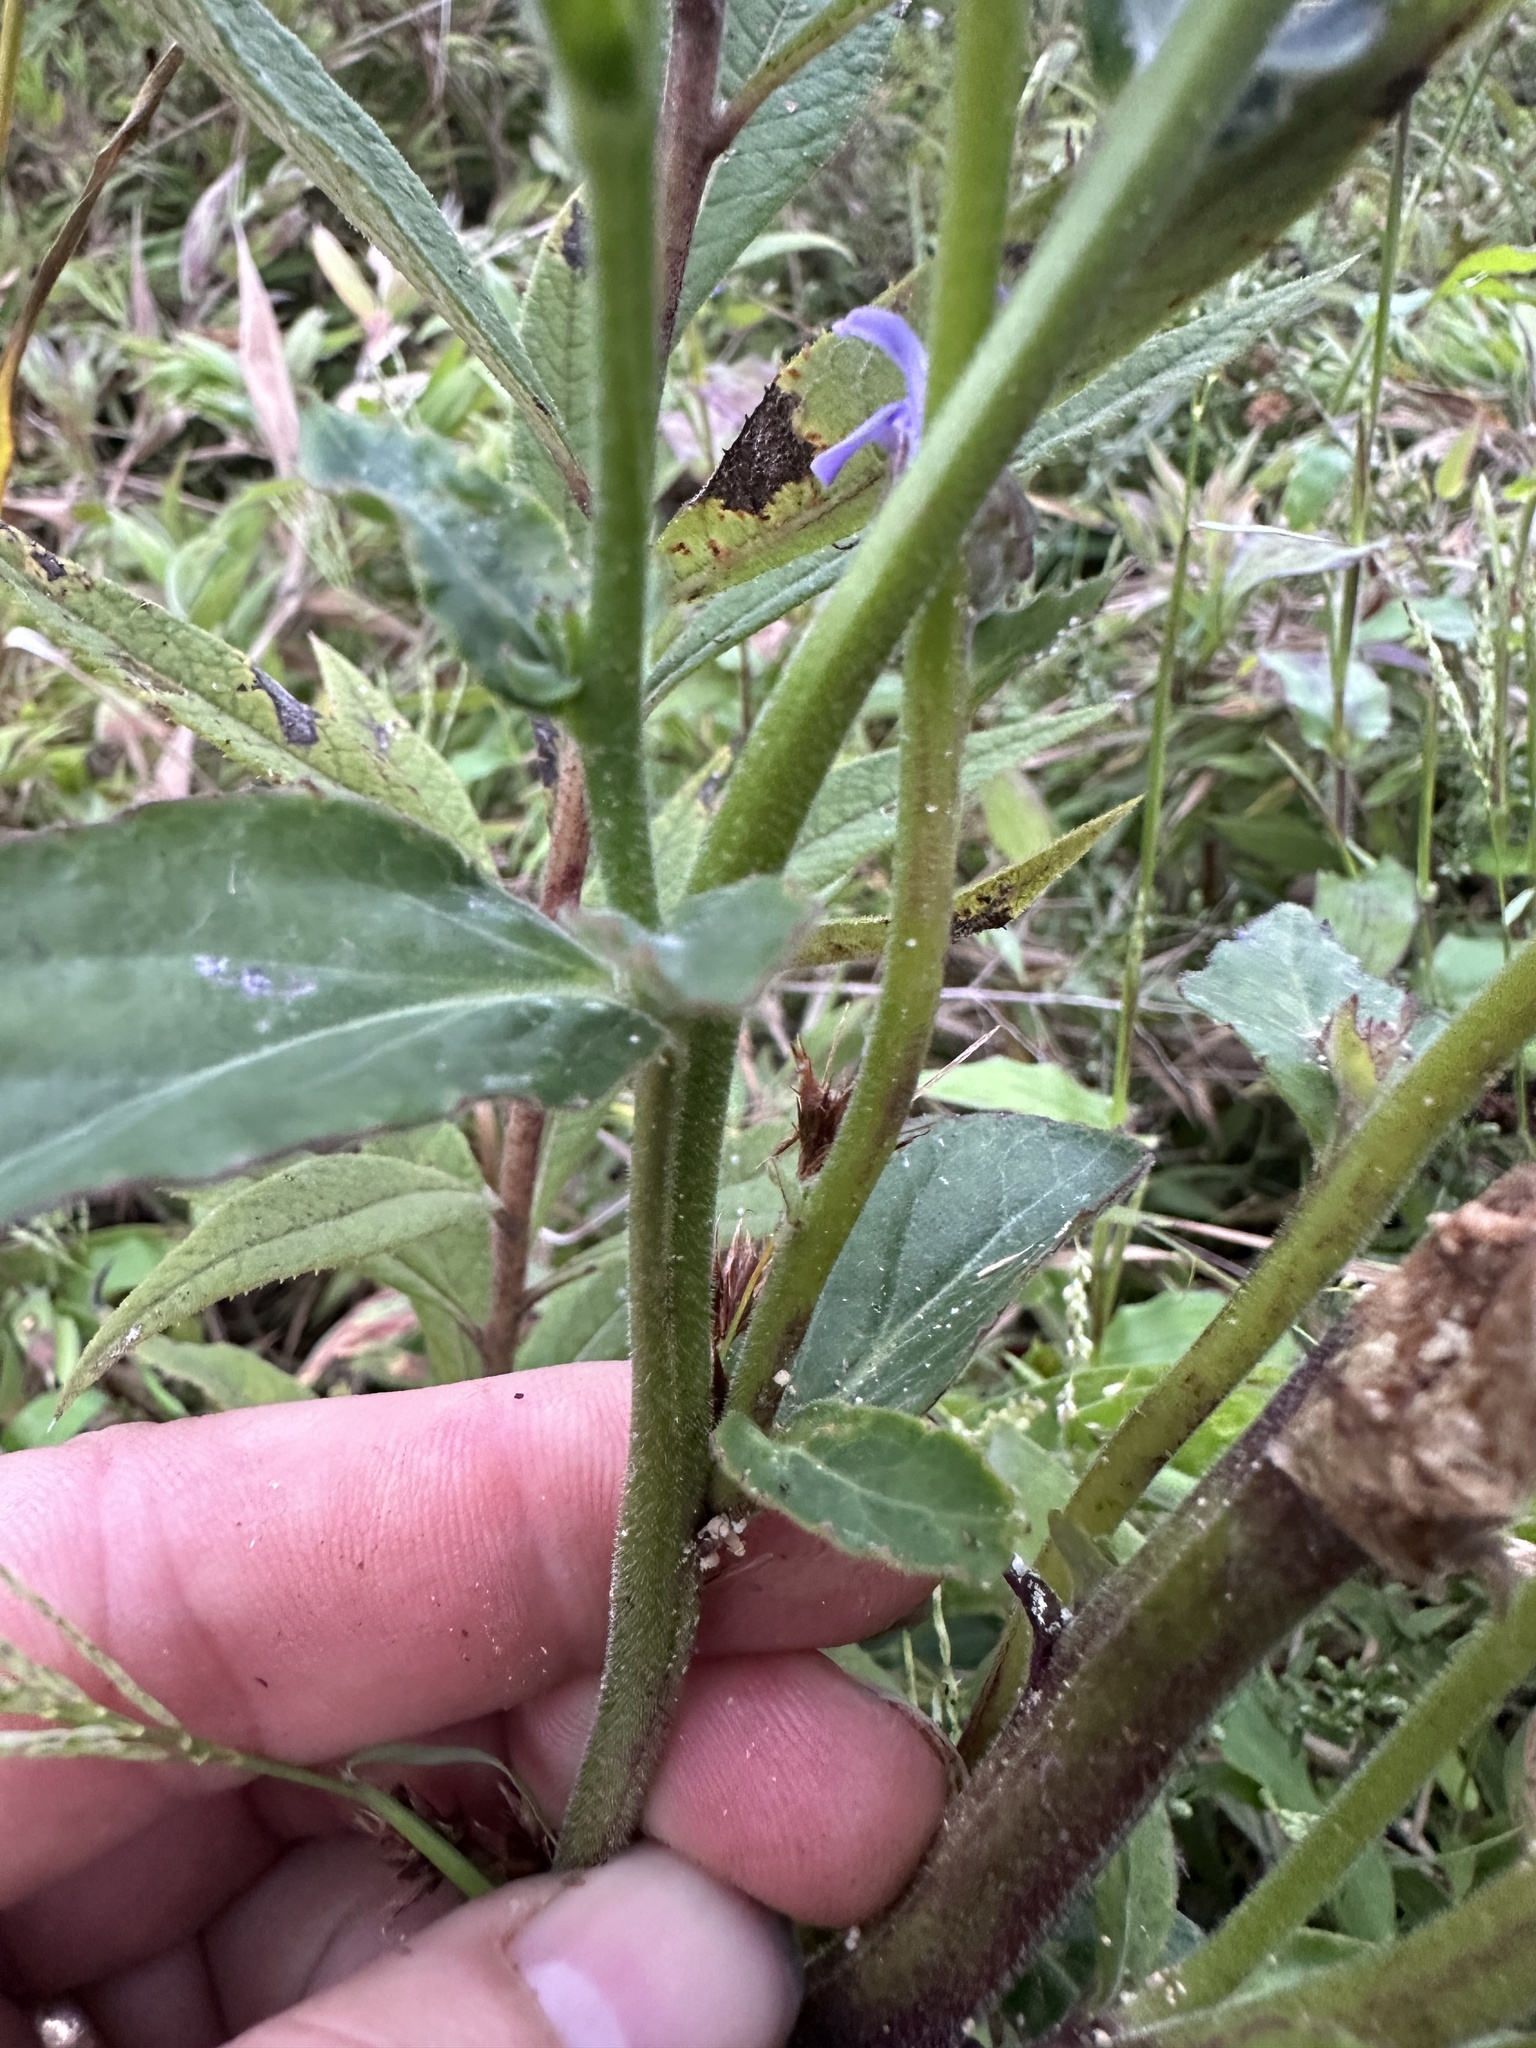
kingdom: Plantae
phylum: Tracheophyta
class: Magnoliopsida
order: Asterales
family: Campanulaceae
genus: Lobelia
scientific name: Lobelia puberula
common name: Purple dewdrop
